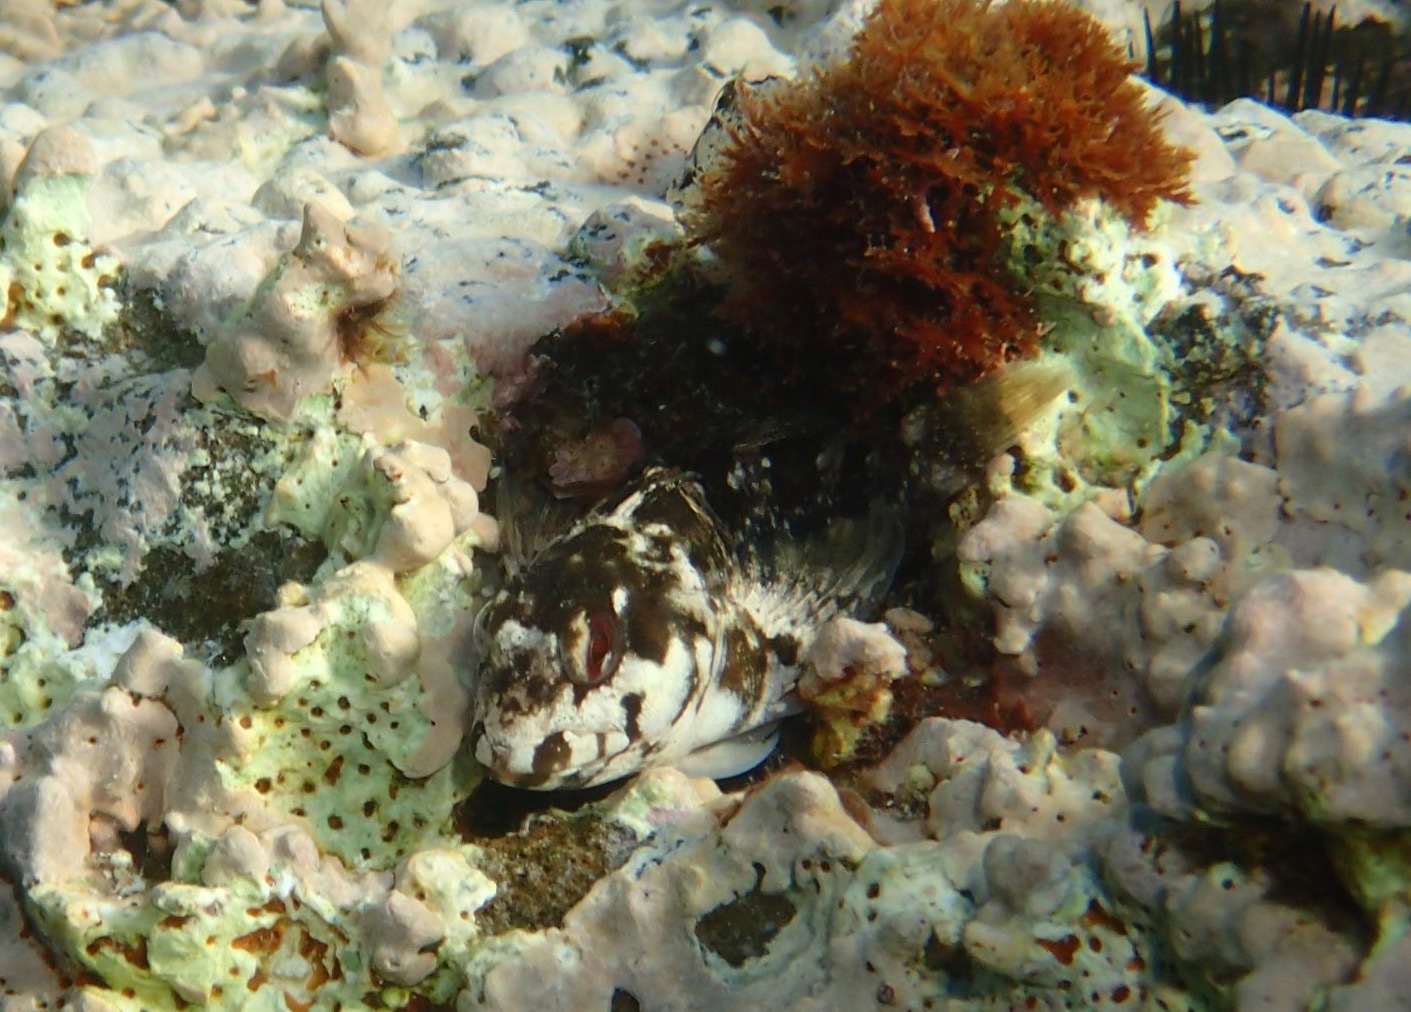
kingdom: Animalia
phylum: Chordata
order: Perciformes
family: Blenniidae
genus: Lipophrys
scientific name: Lipophrys trigloides
